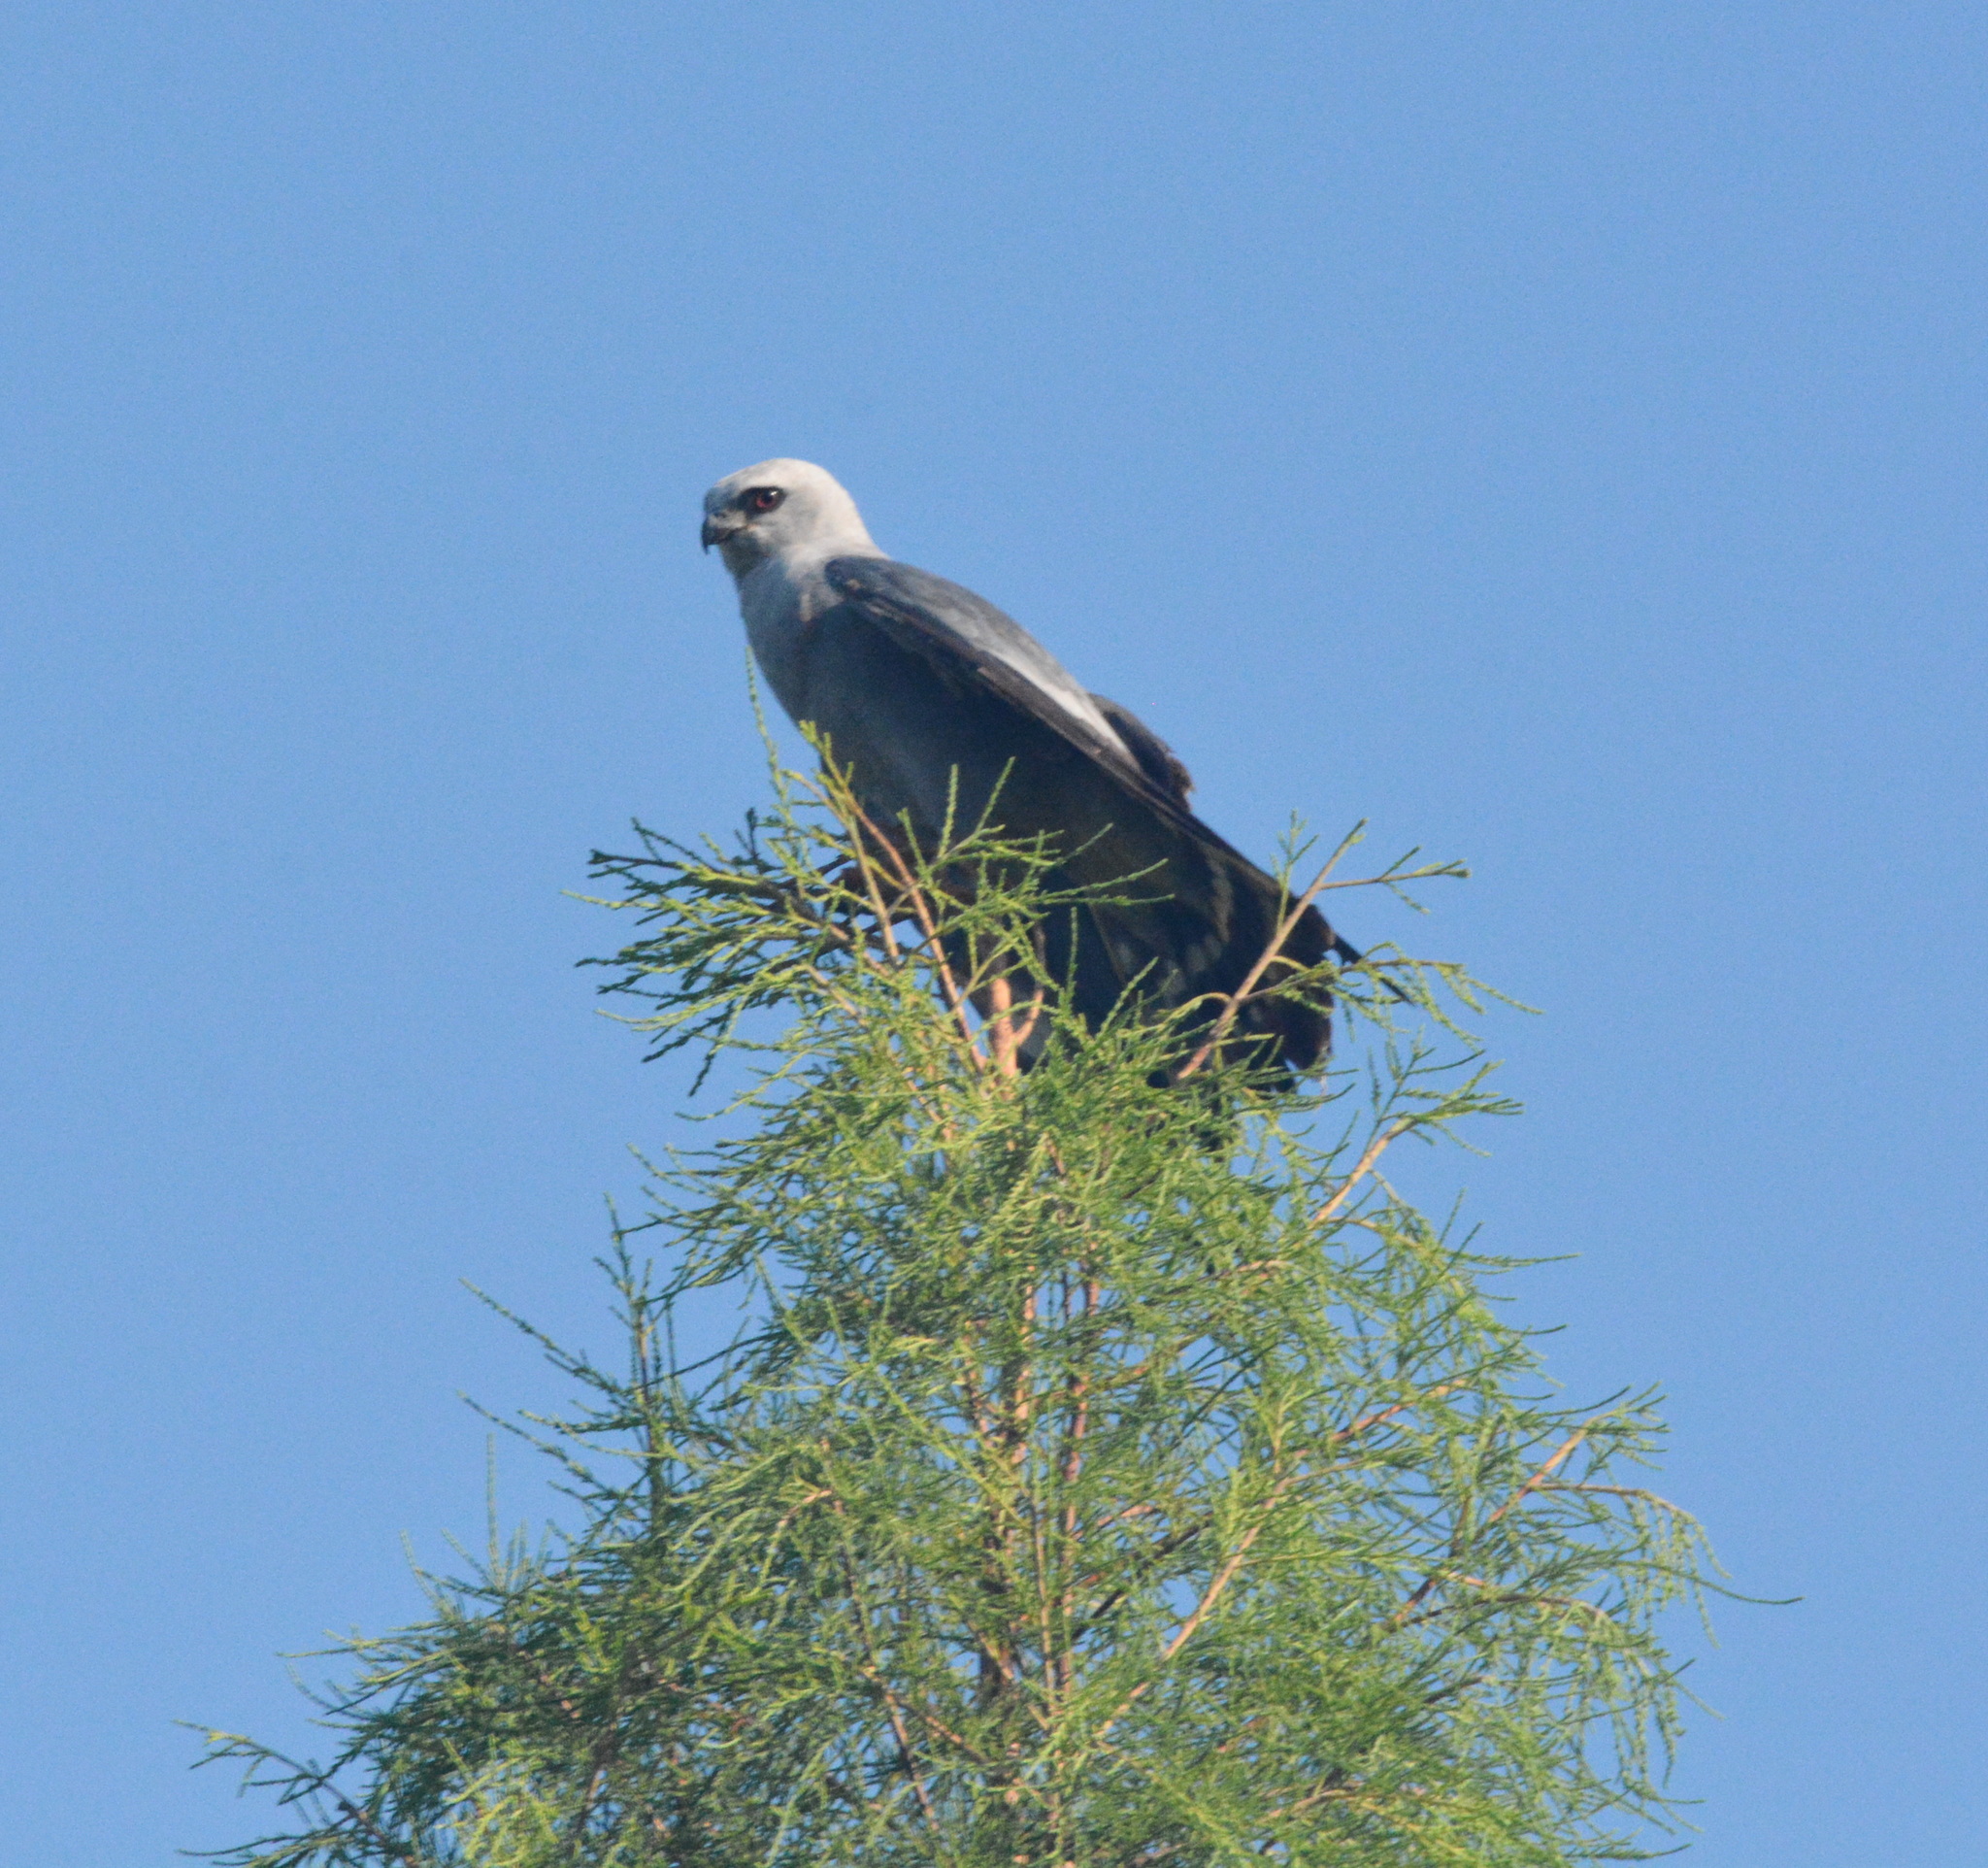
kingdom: Animalia
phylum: Chordata
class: Aves
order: Accipitriformes
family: Accipitridae
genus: Ictinia
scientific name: Ictinia mississippiensis
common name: Mississippi kite
